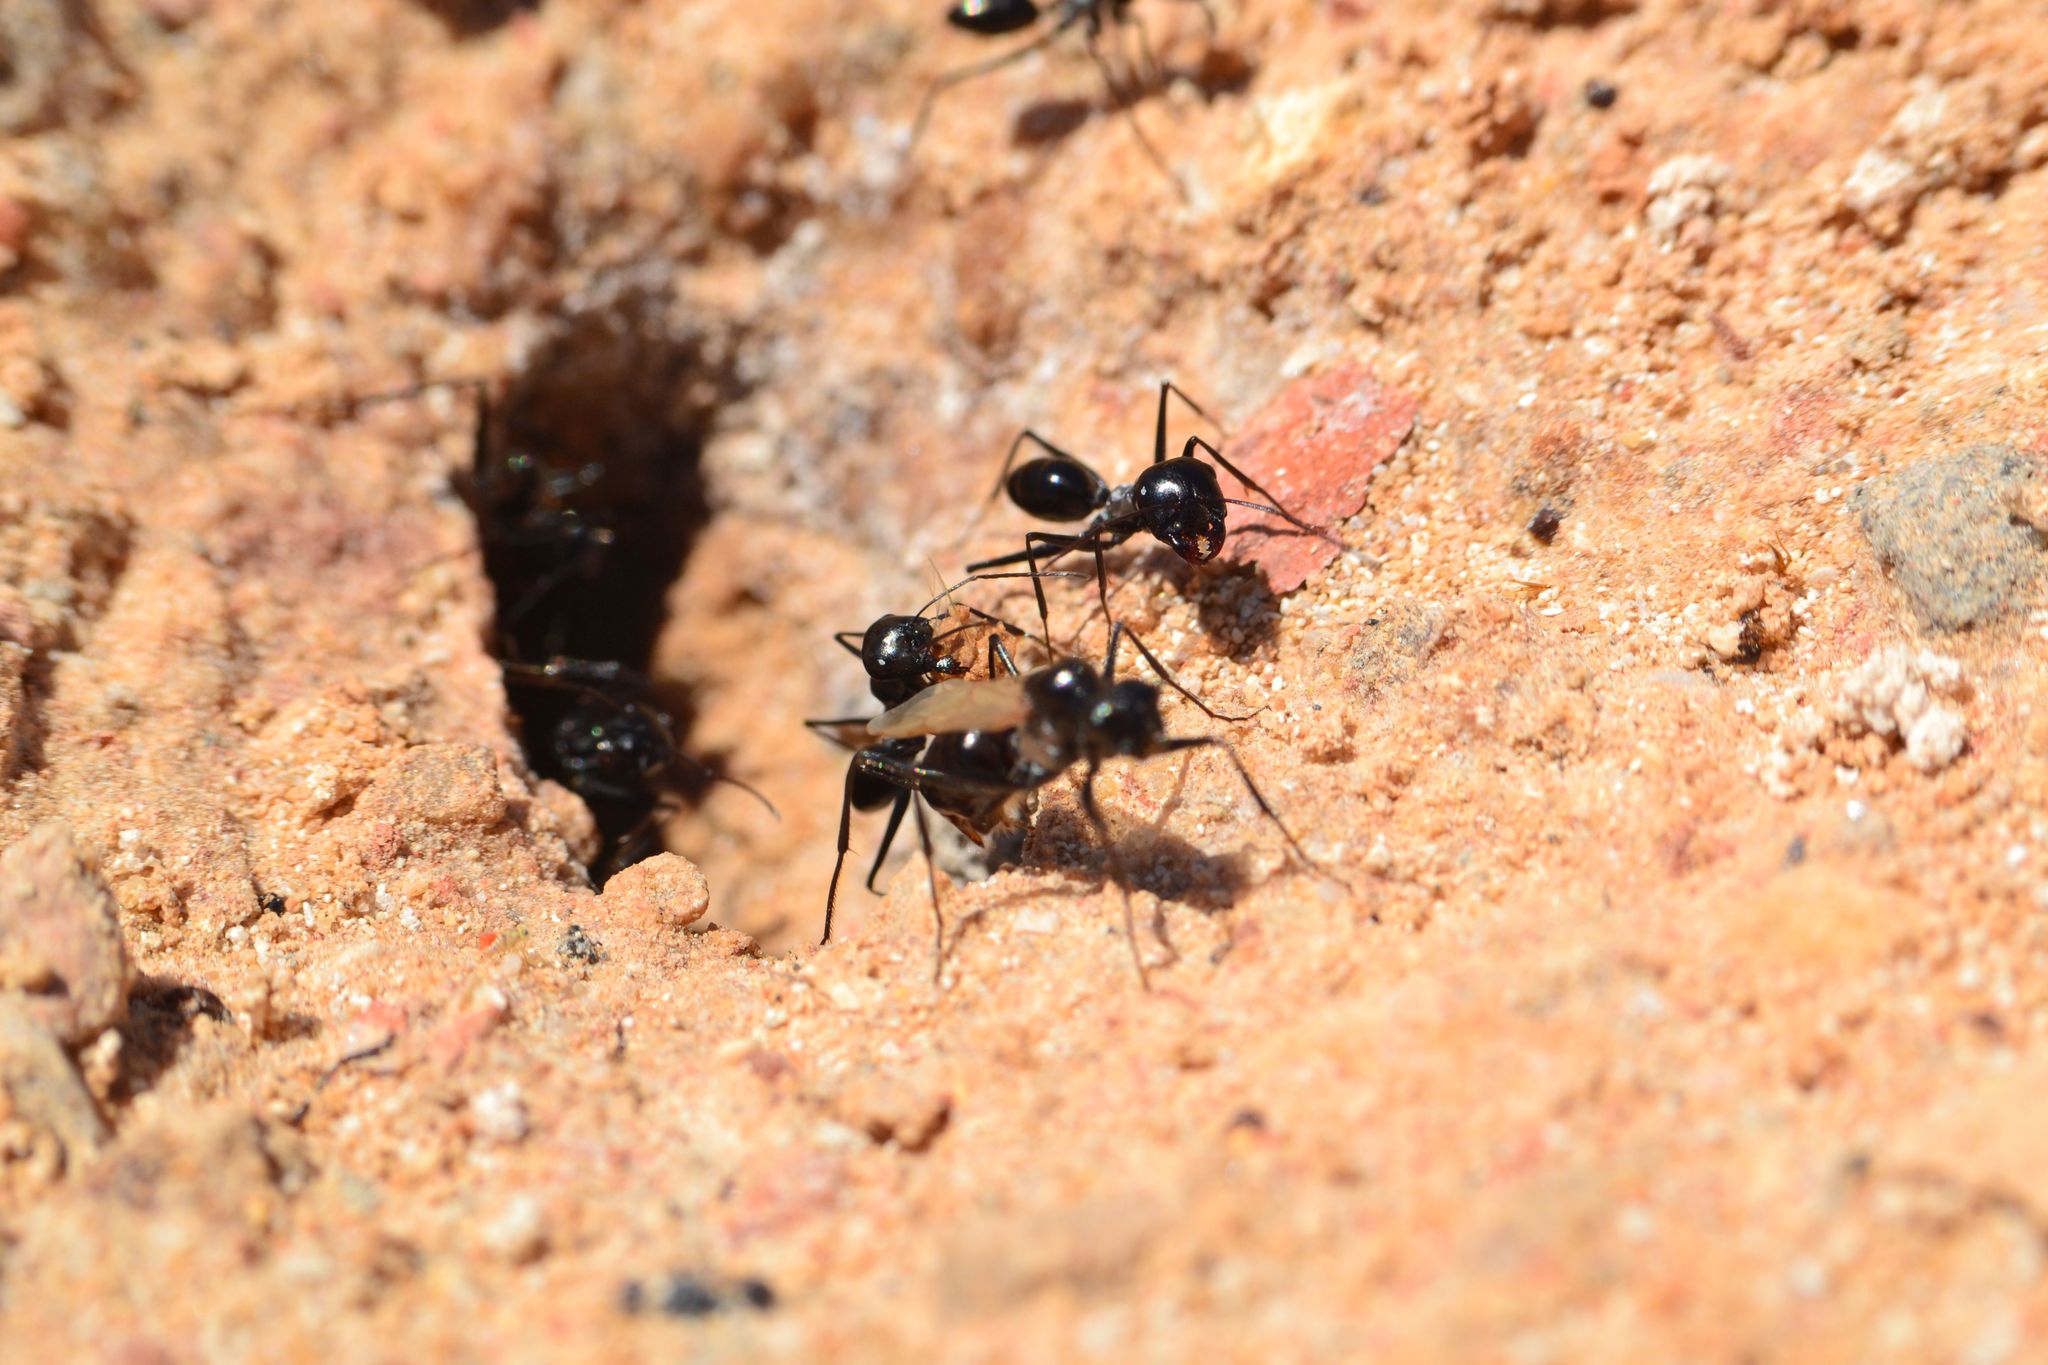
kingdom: Animalia
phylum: Arthropoda
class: Insecta
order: Hymenoptera
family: Formicidae
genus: Cataglyphis
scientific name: Cataglyphis fortis
